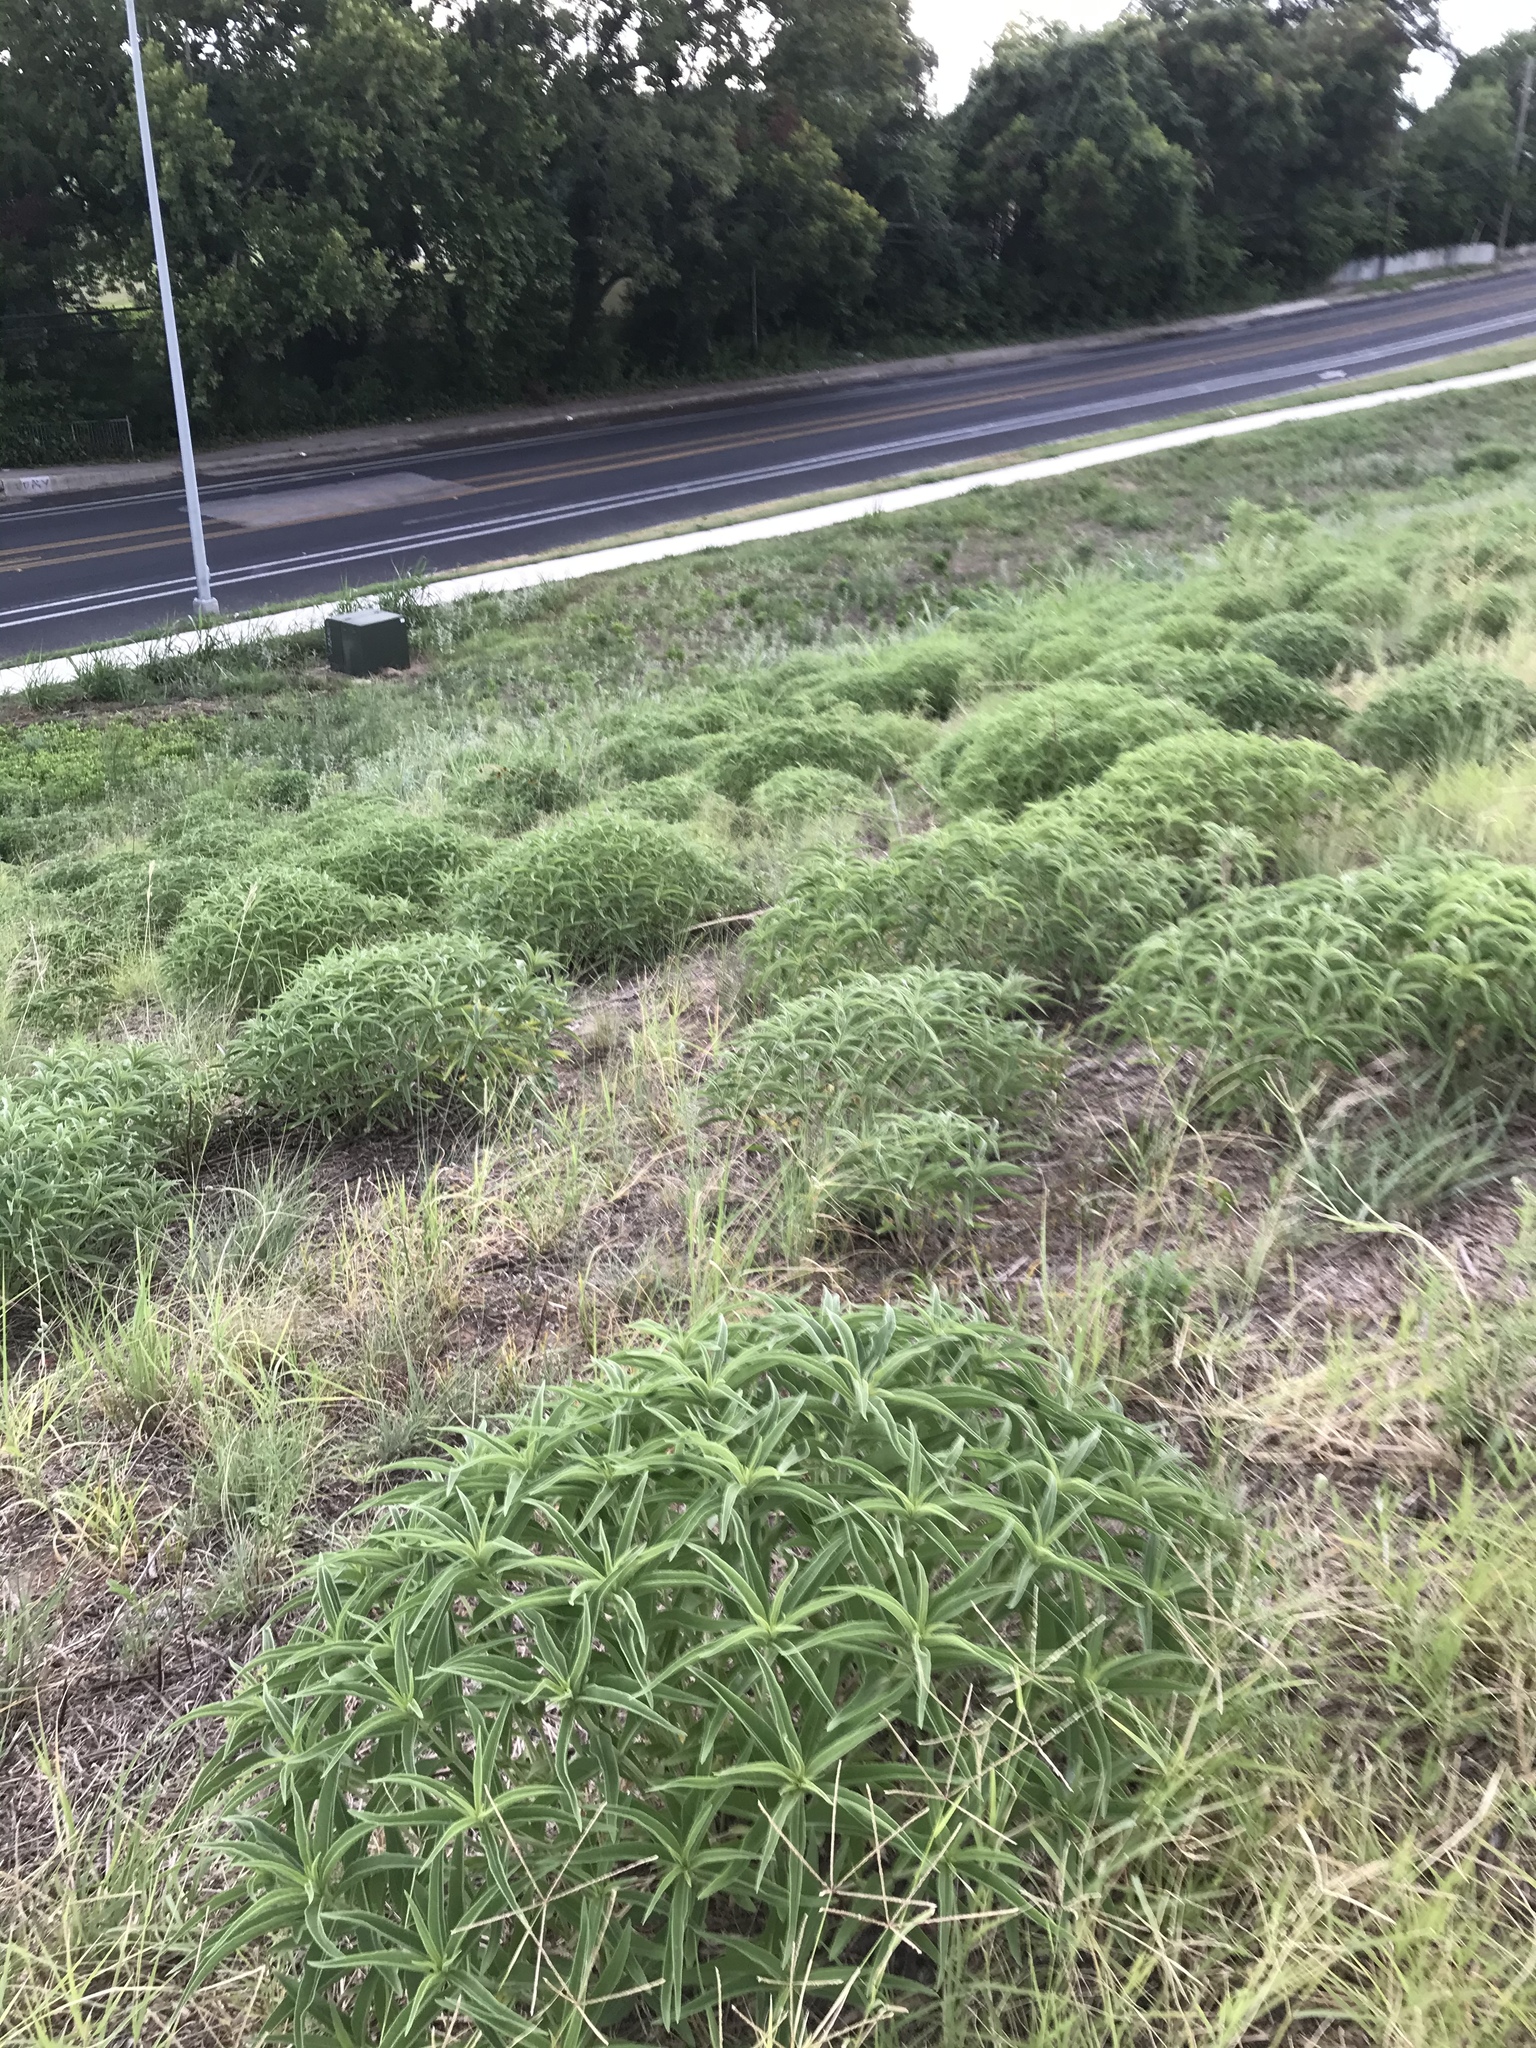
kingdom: Plantae
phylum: Tracheophyta
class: Magnoliopsida
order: Asterales
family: Asteraceae
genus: Helianthus
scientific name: Helianthus maximiliani
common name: Maximilian's sunflower
